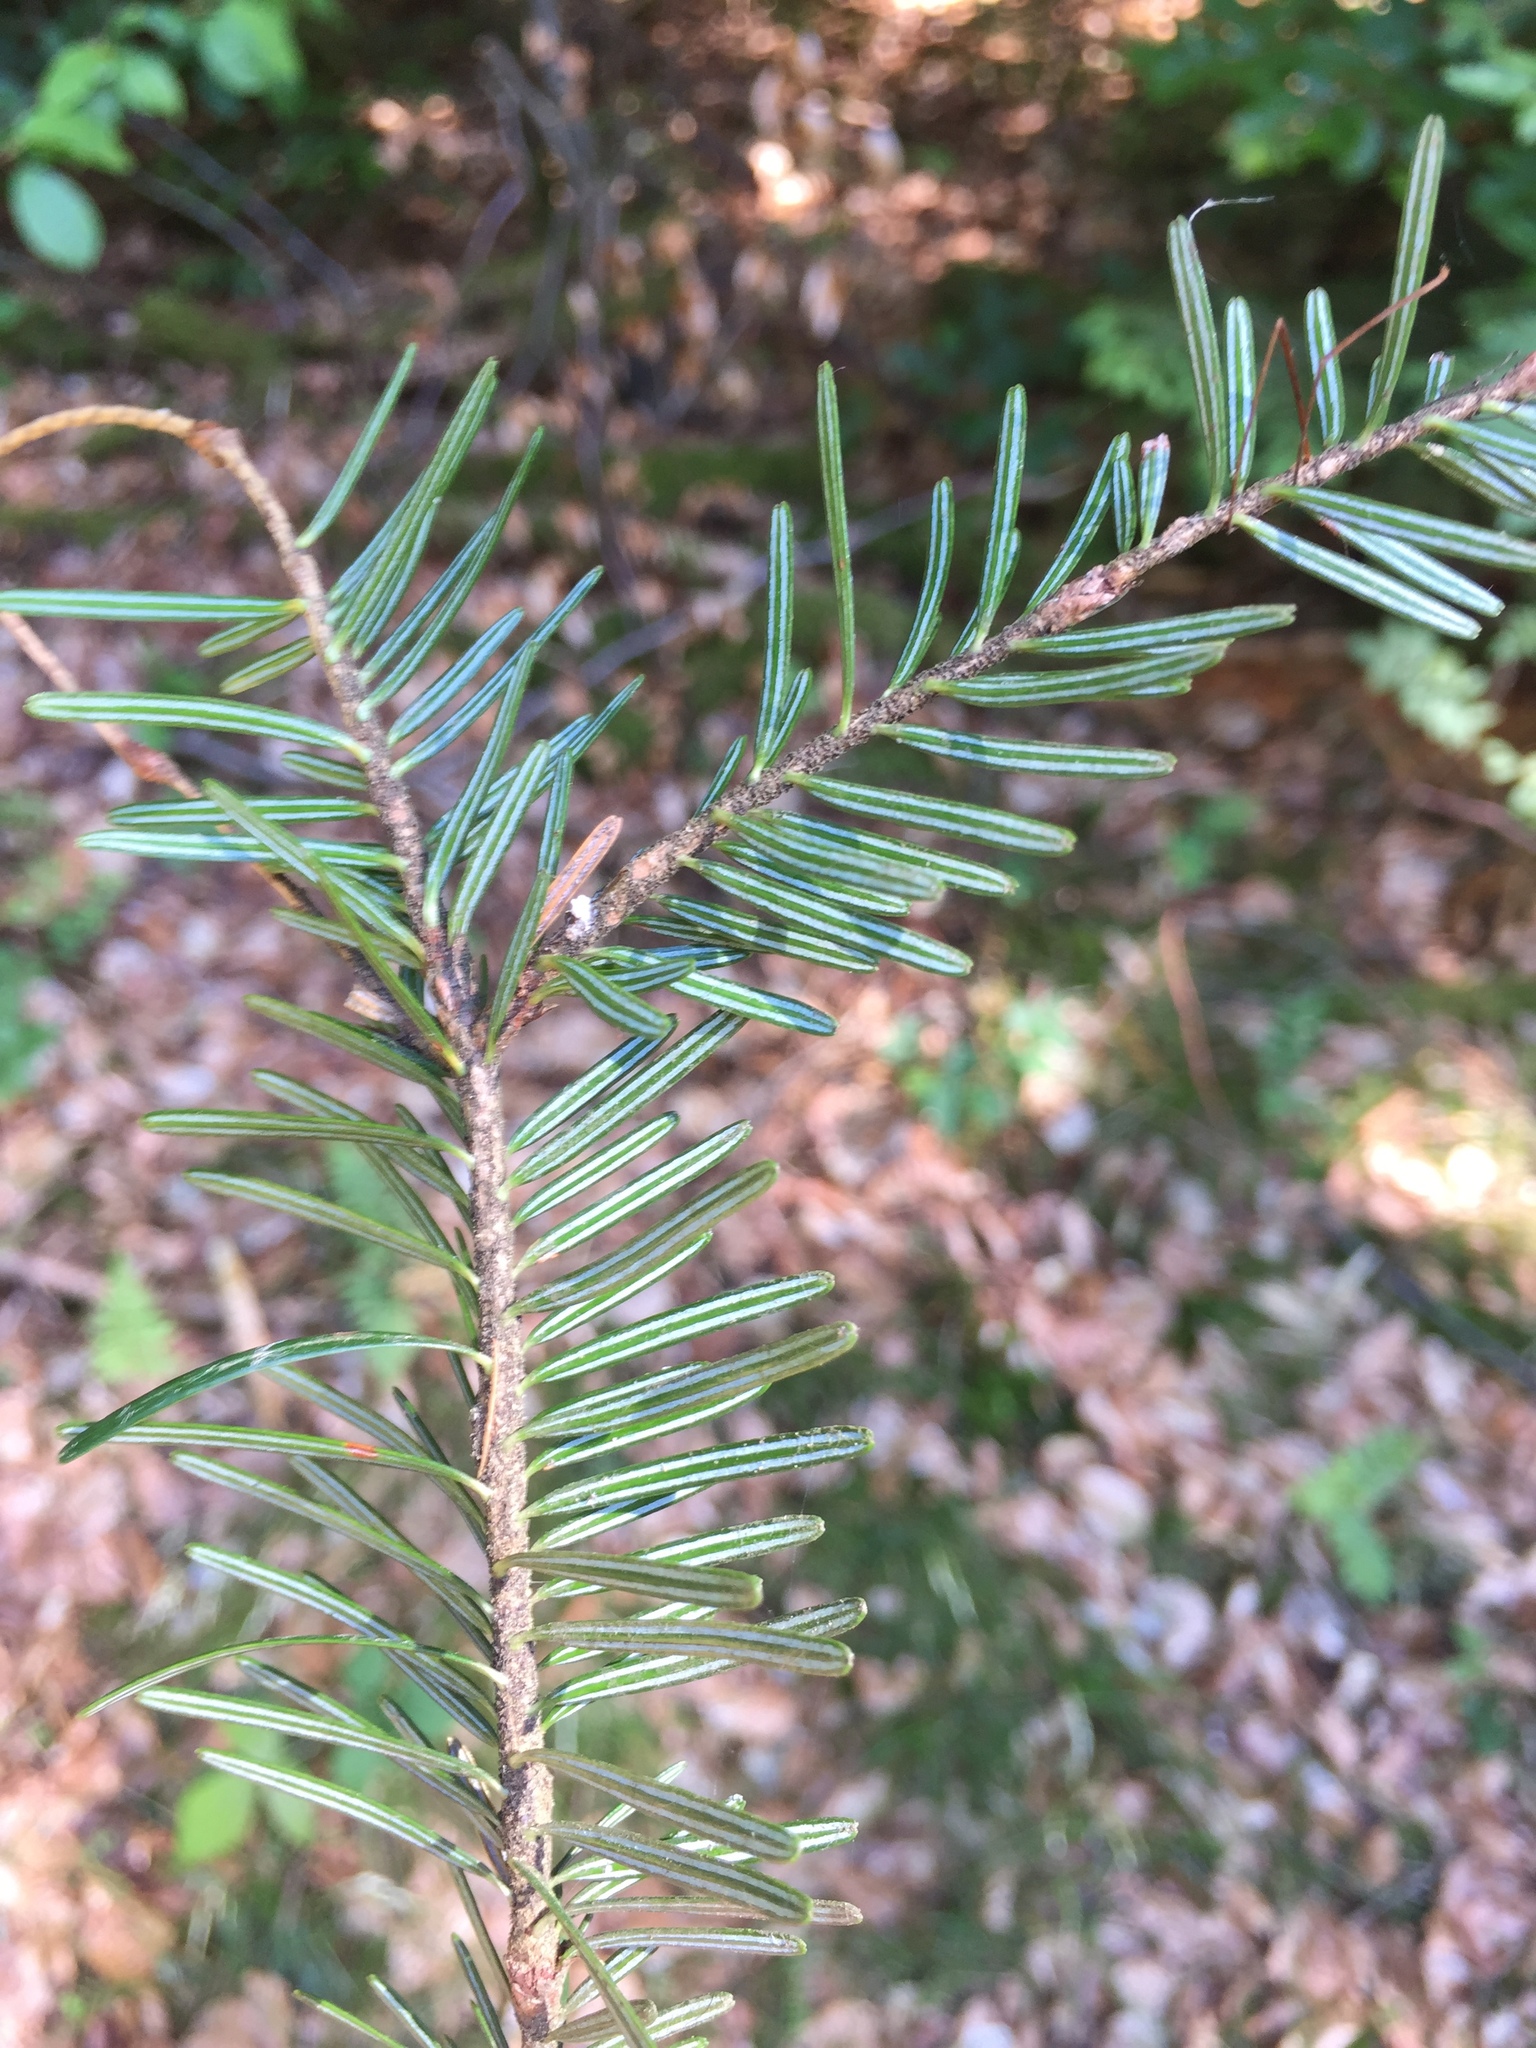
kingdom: Plantae
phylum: Tracheophyta
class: Pinopsida
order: Pinales
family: Pinaceae
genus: Abies
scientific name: Abies alba
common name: Silver fir
